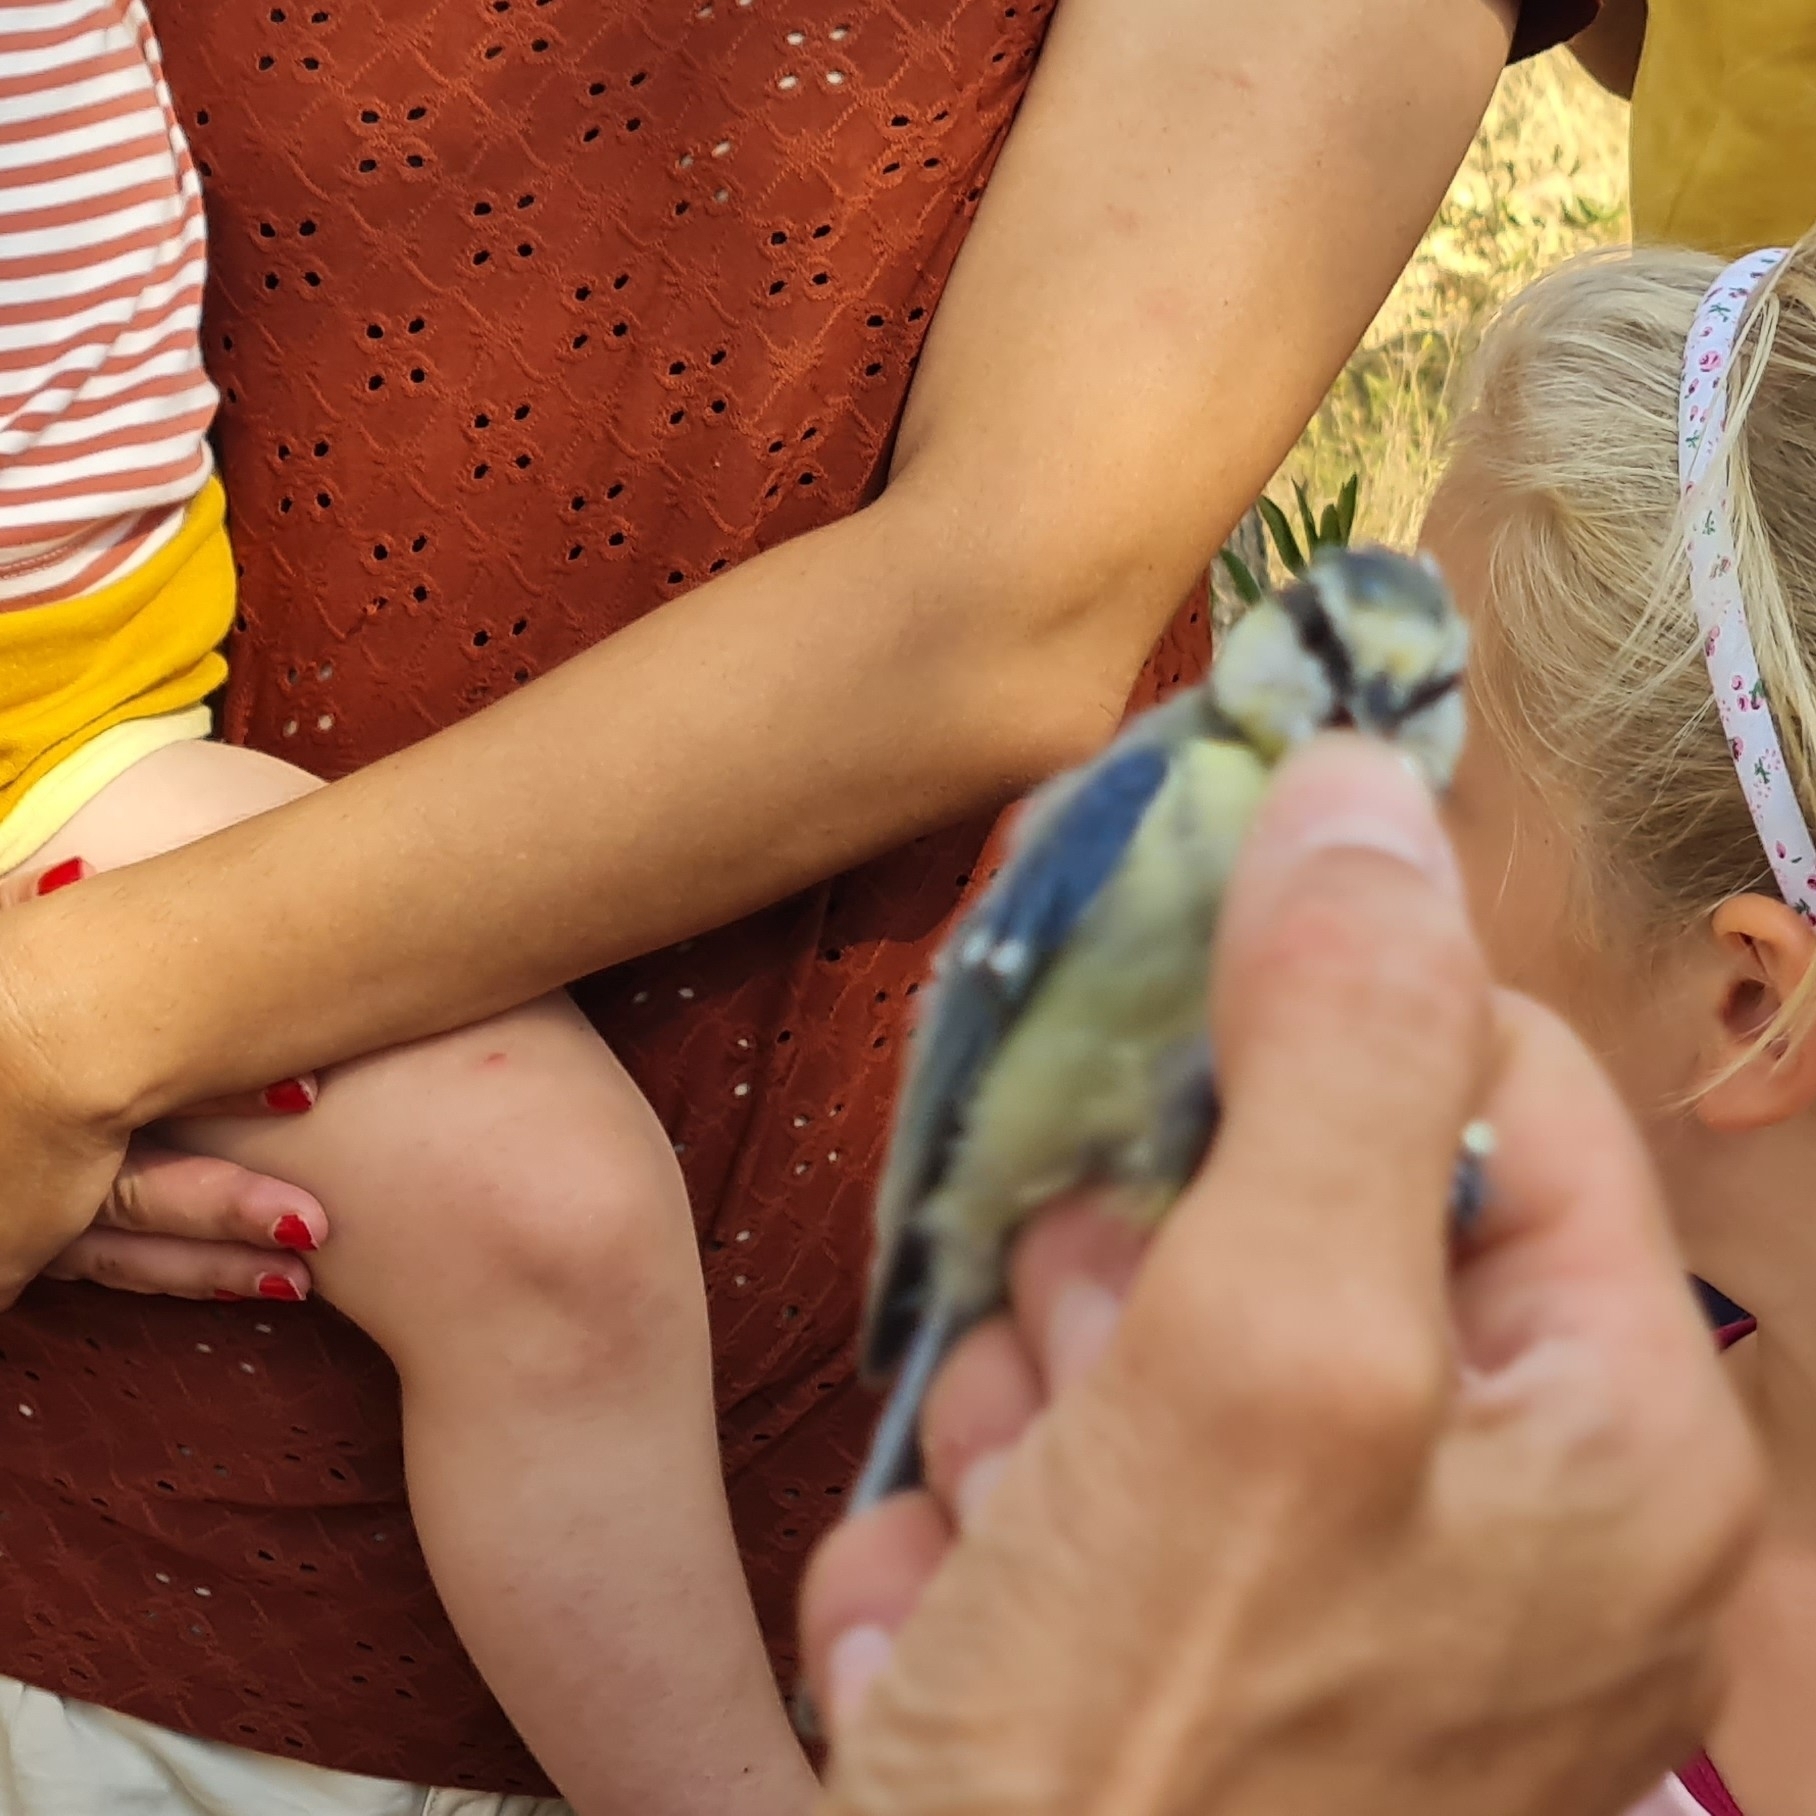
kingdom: Animalia
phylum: Chordata
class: Aves
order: Passeriformes
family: Paridae
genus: Cyanistes
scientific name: Cyanistes caeruleus
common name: Eurasian blue tit
